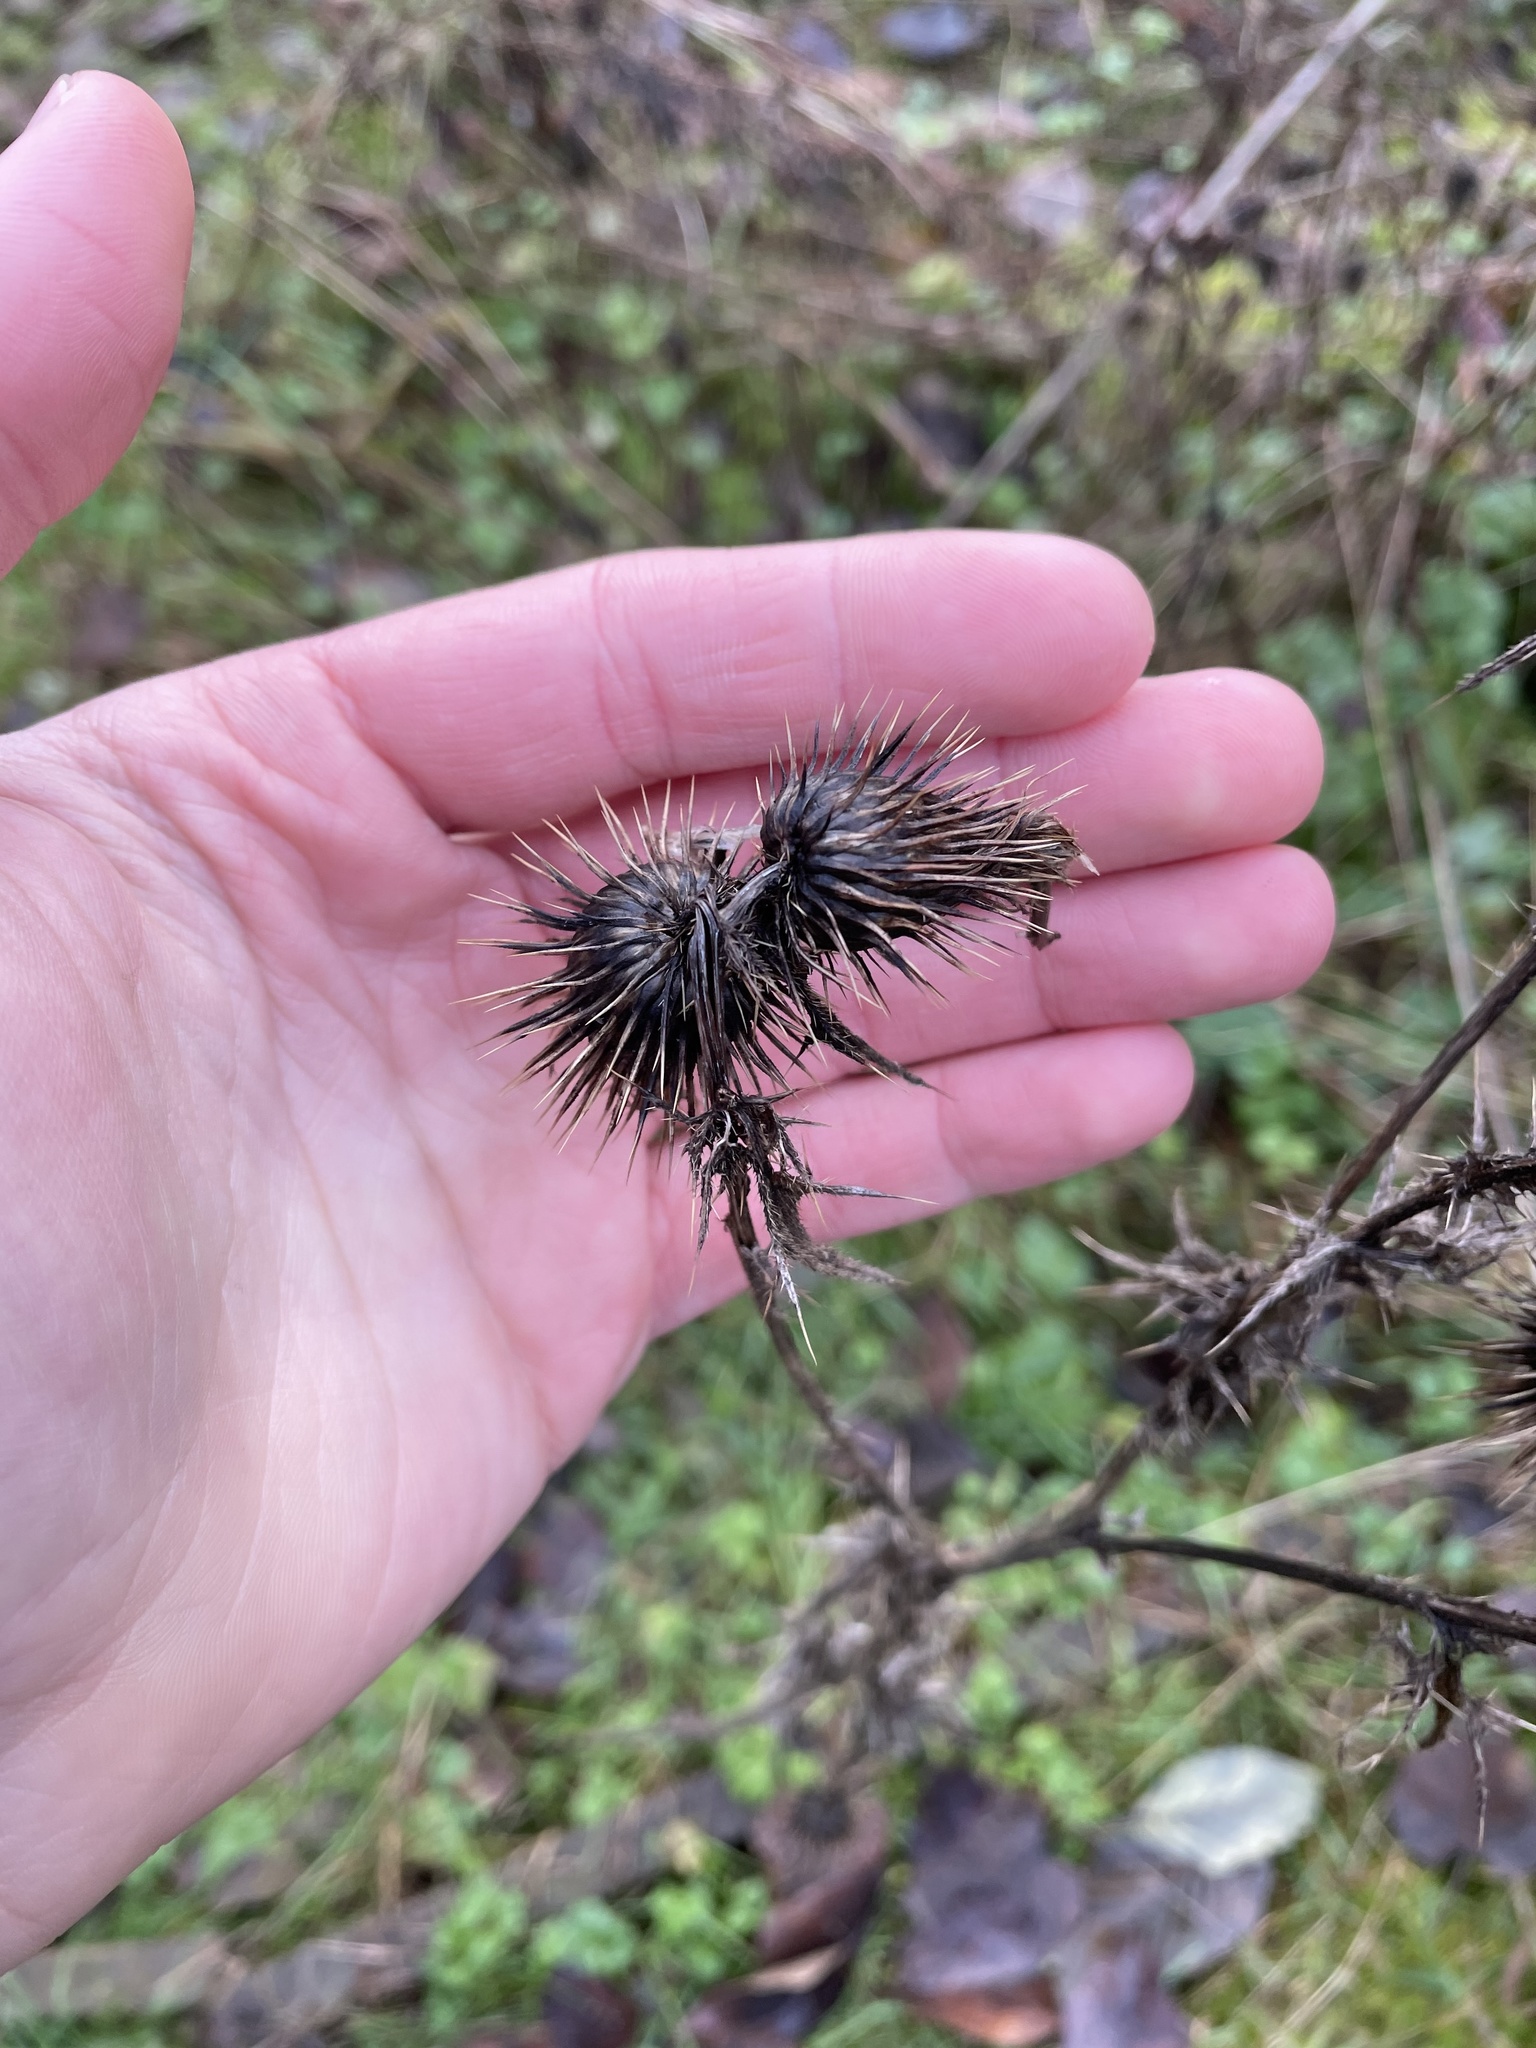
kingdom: Plantae
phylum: Tracheophyta
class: Magnoliopsida
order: Asterales
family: Asteraceae
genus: Cirsium
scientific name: Cirsium vulgare
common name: Bull thistle
